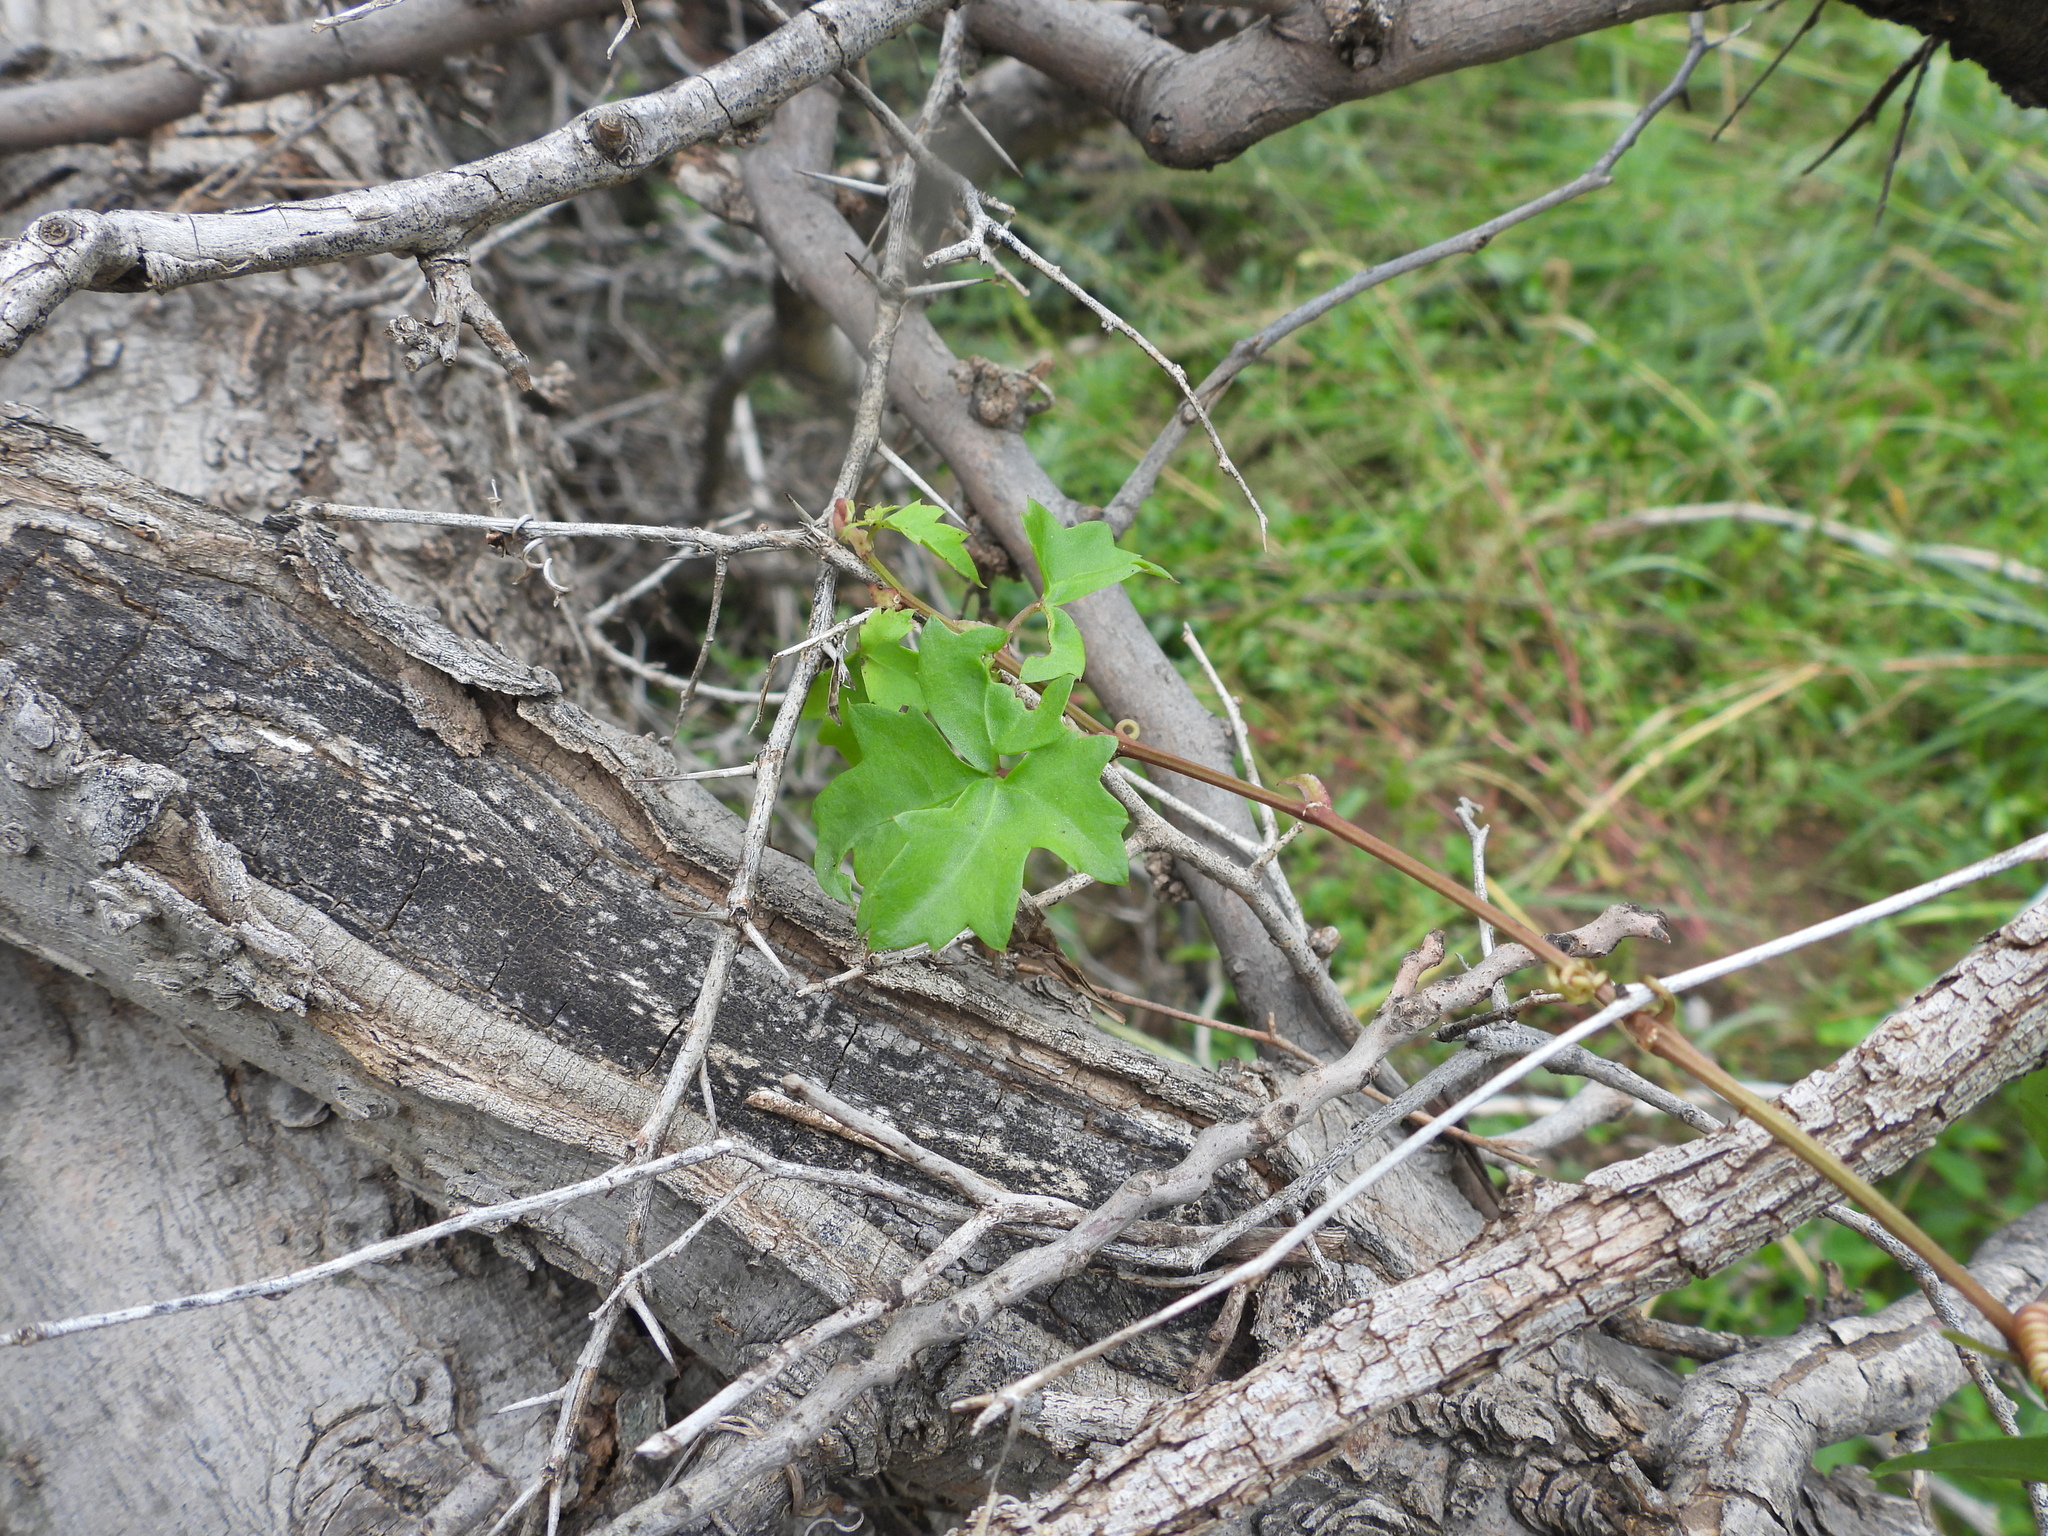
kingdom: Plantae
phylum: Tracheophyta
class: Magnoliopsida
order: Vitales
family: Vitaceae
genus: Cissus
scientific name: Cissus trifoliata
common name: Vine-sorrel
